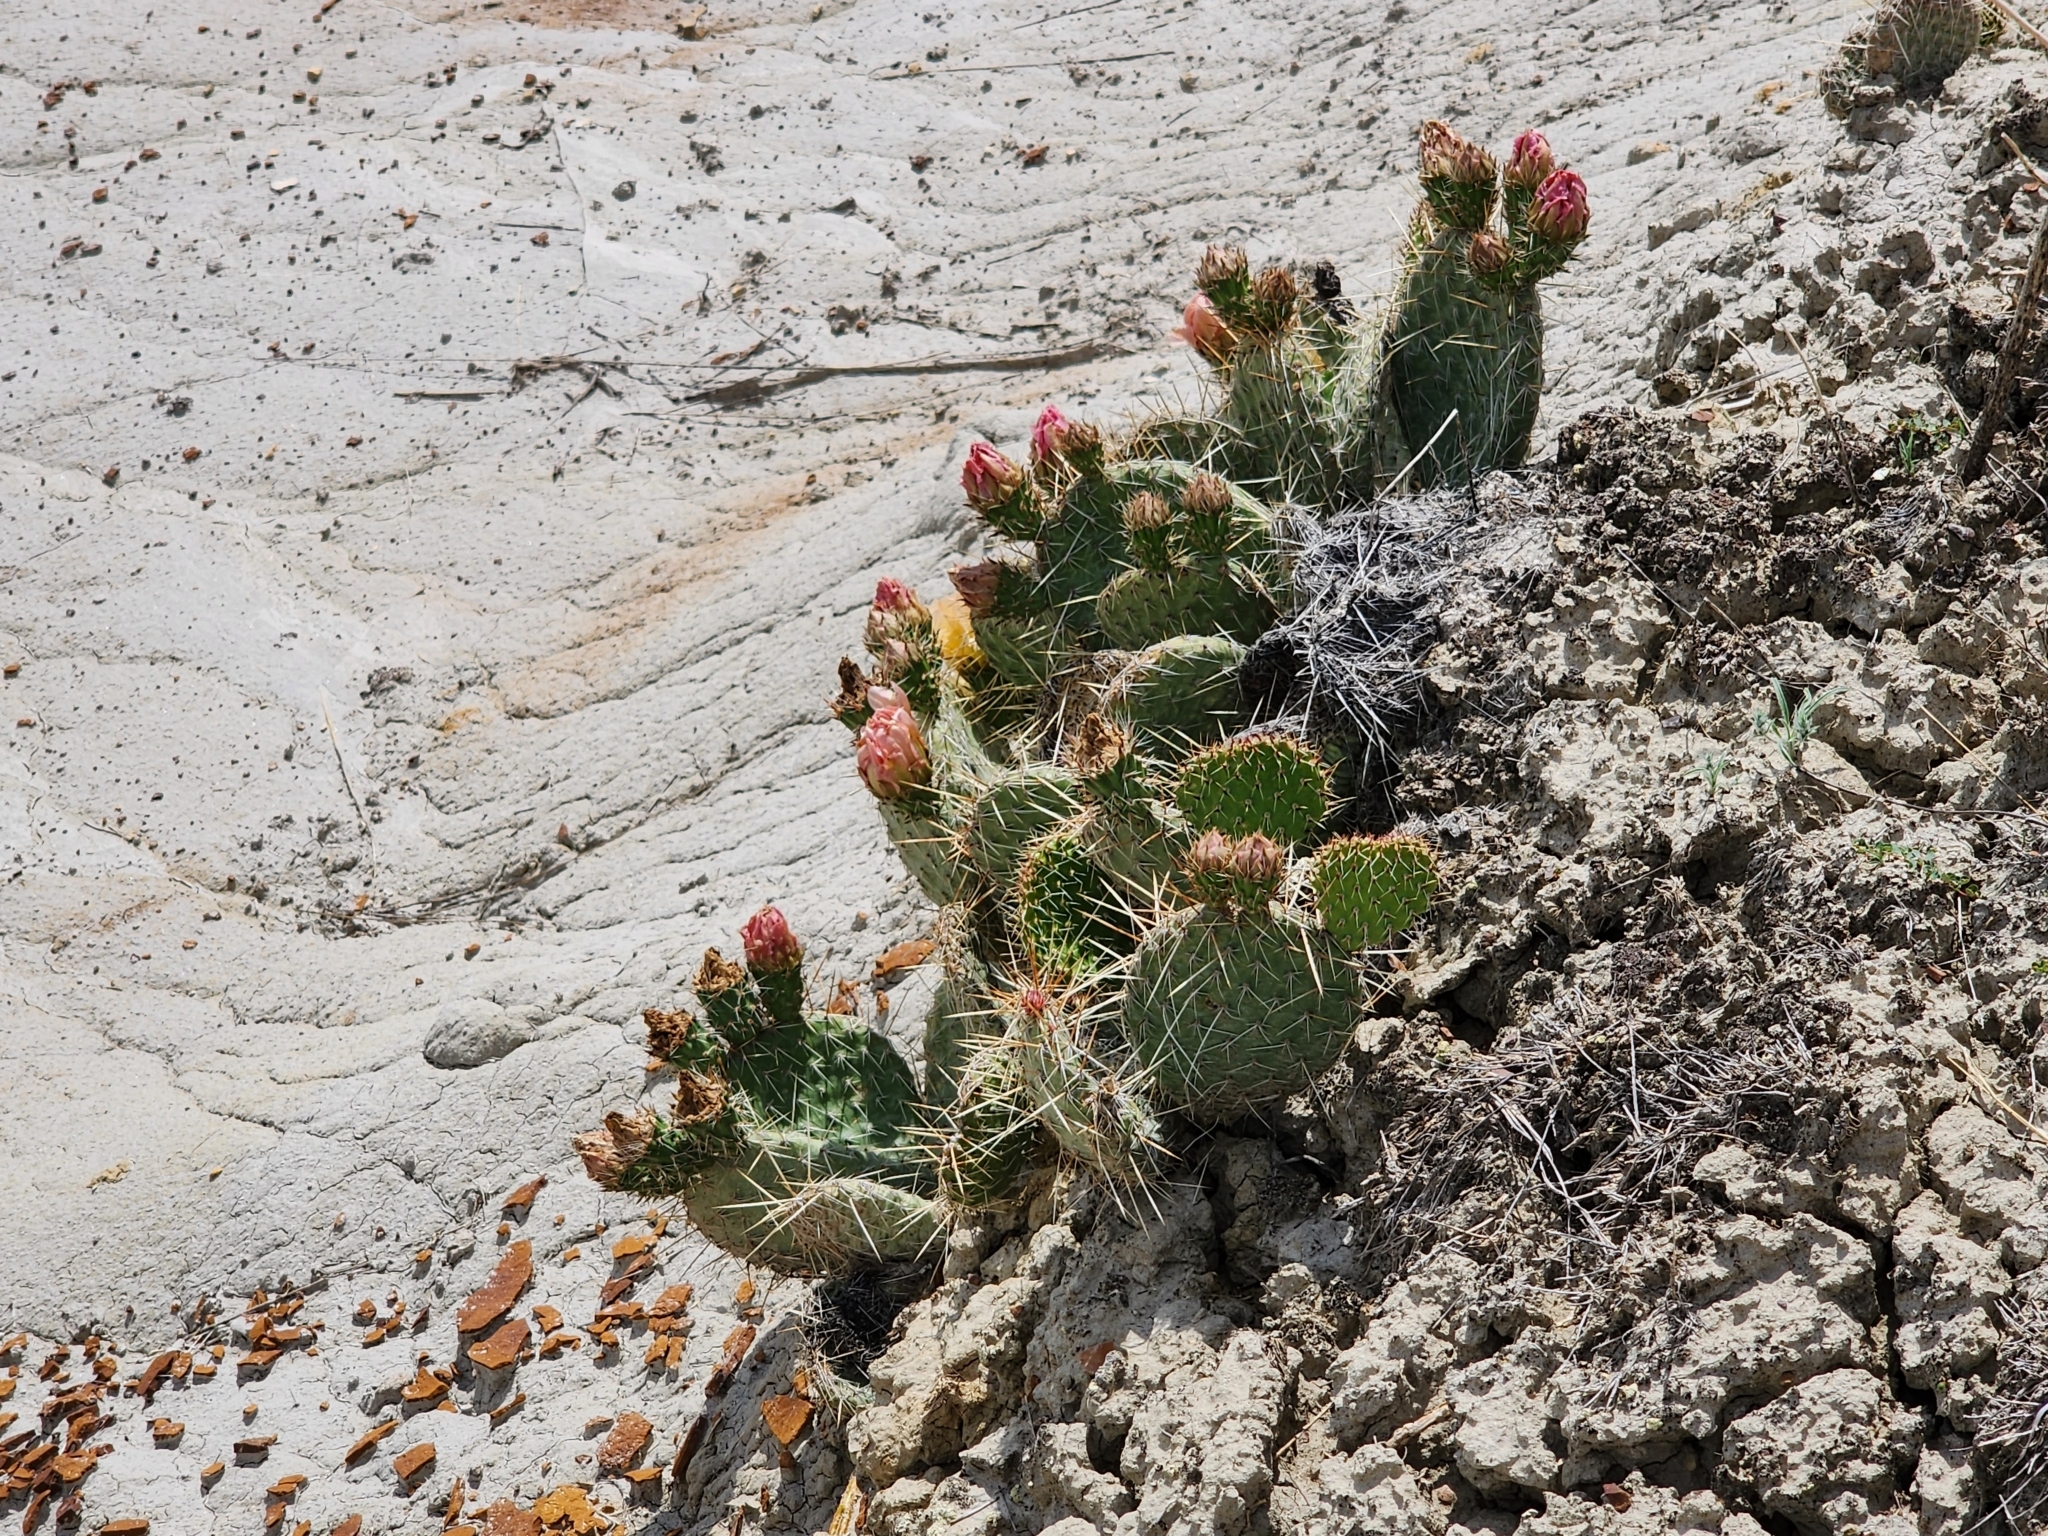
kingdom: Plantae
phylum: Tracheophyta
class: Magnoliopsida
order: Caryophyllales
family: Cactaceae
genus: Opuntia
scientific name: Opuntia polyacantha
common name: Plains prickly-pear
